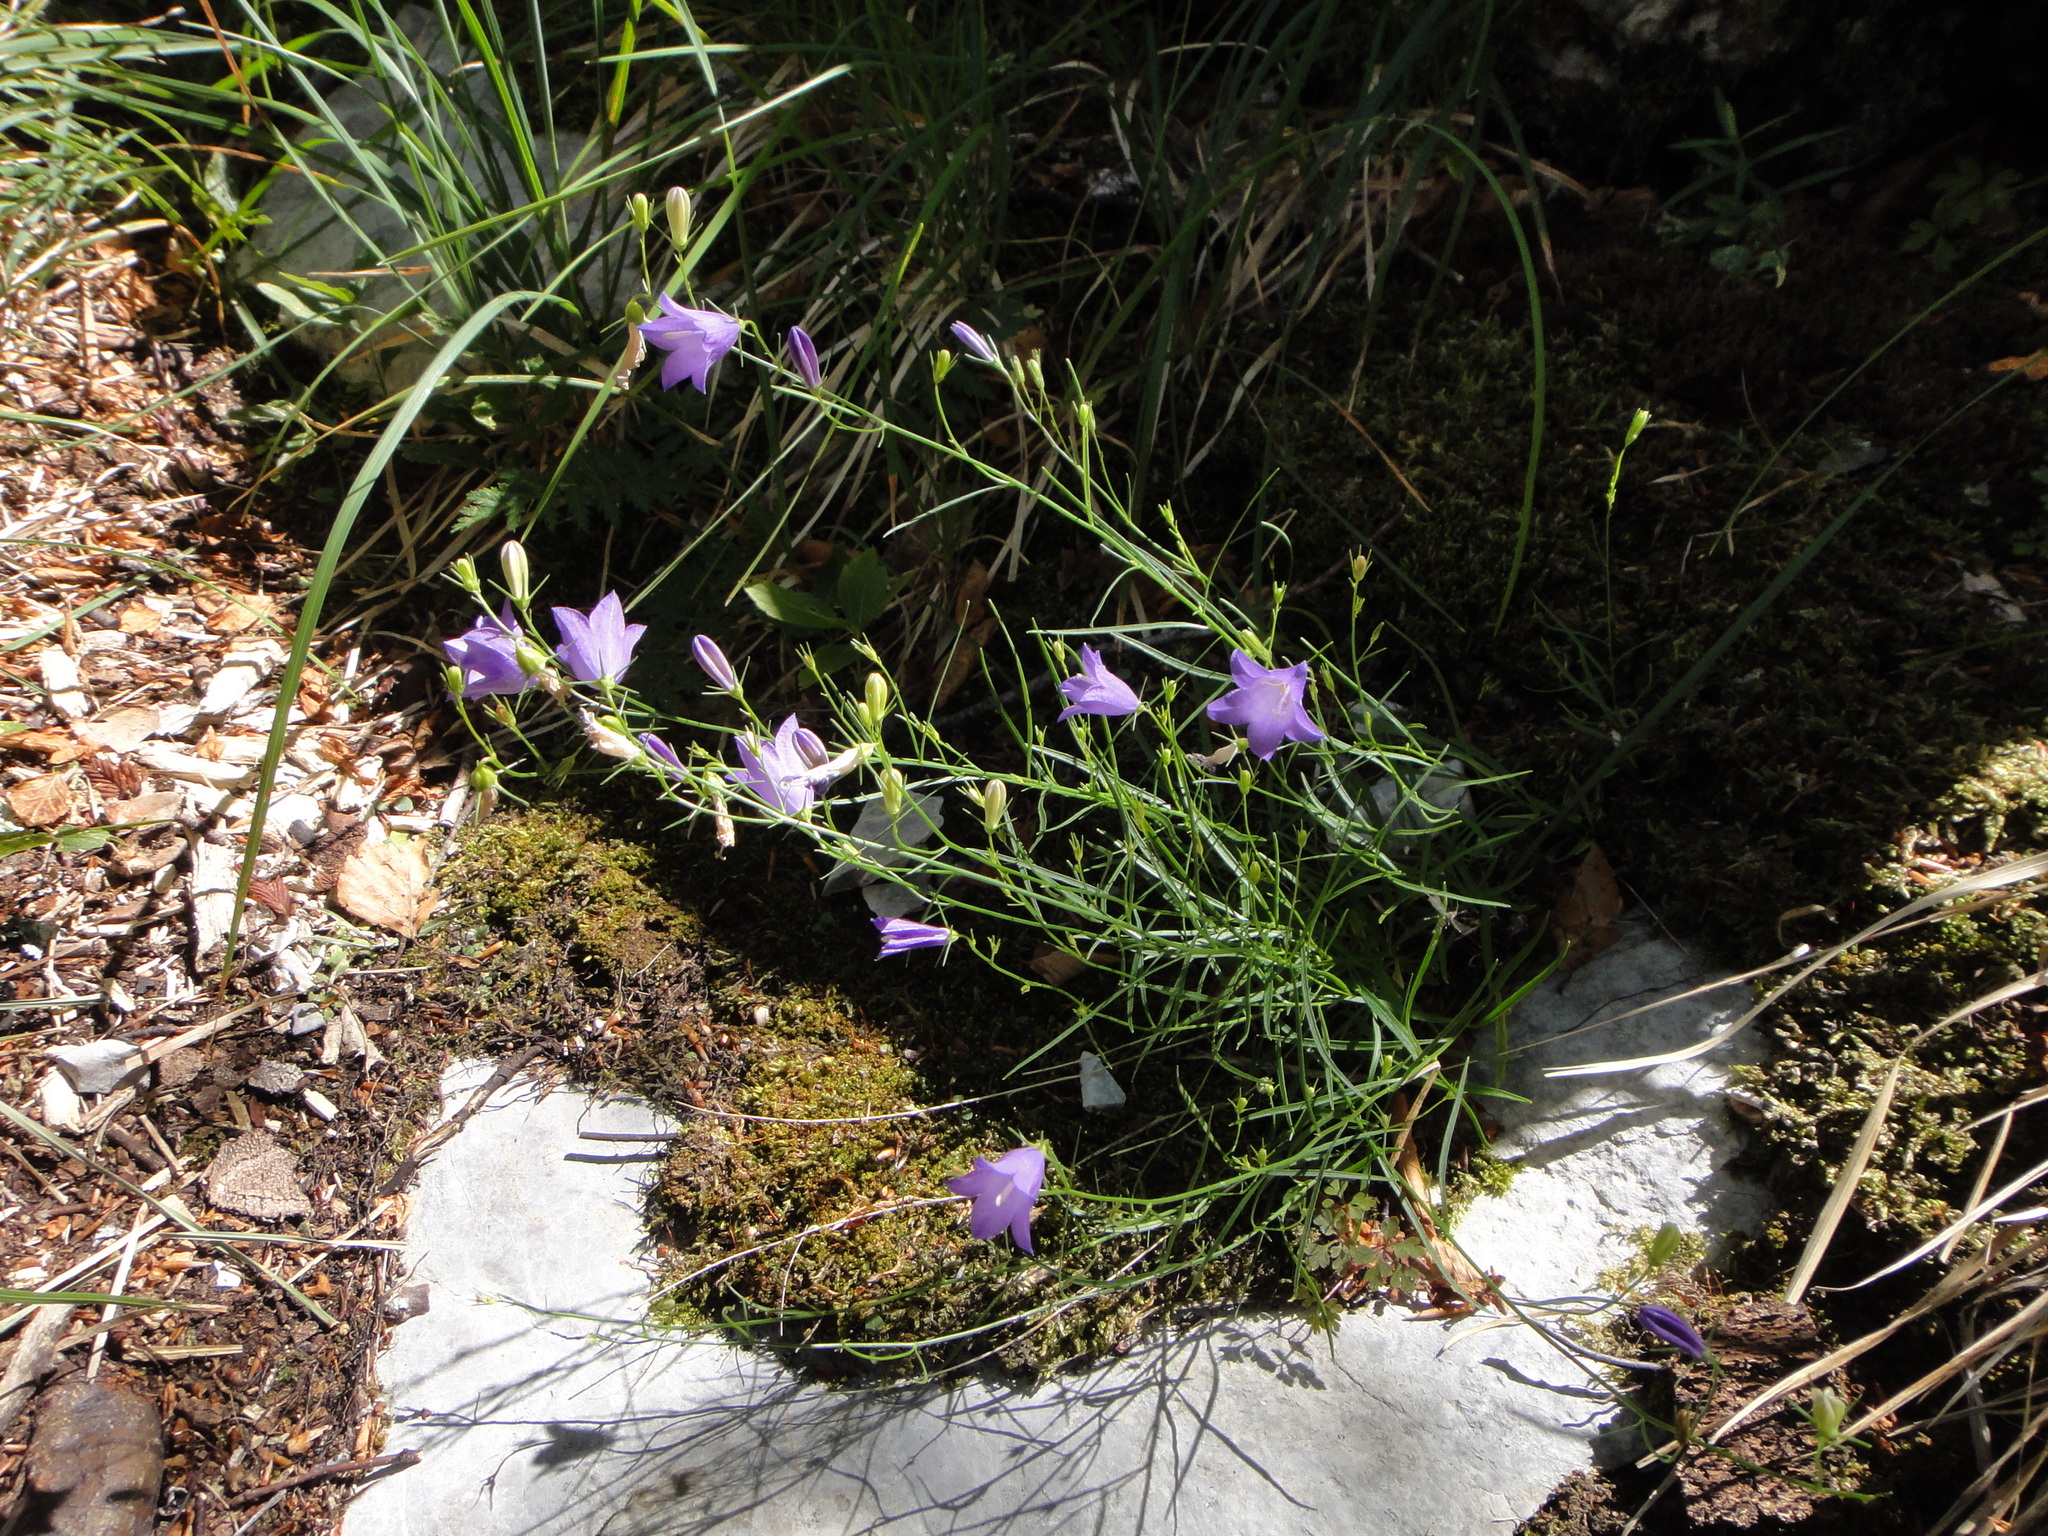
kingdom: Plantae
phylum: Tracheophyta
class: Magnoliopsida
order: Asterales
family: Campanulaceae
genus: Campanula
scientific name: Campanula velebitica
